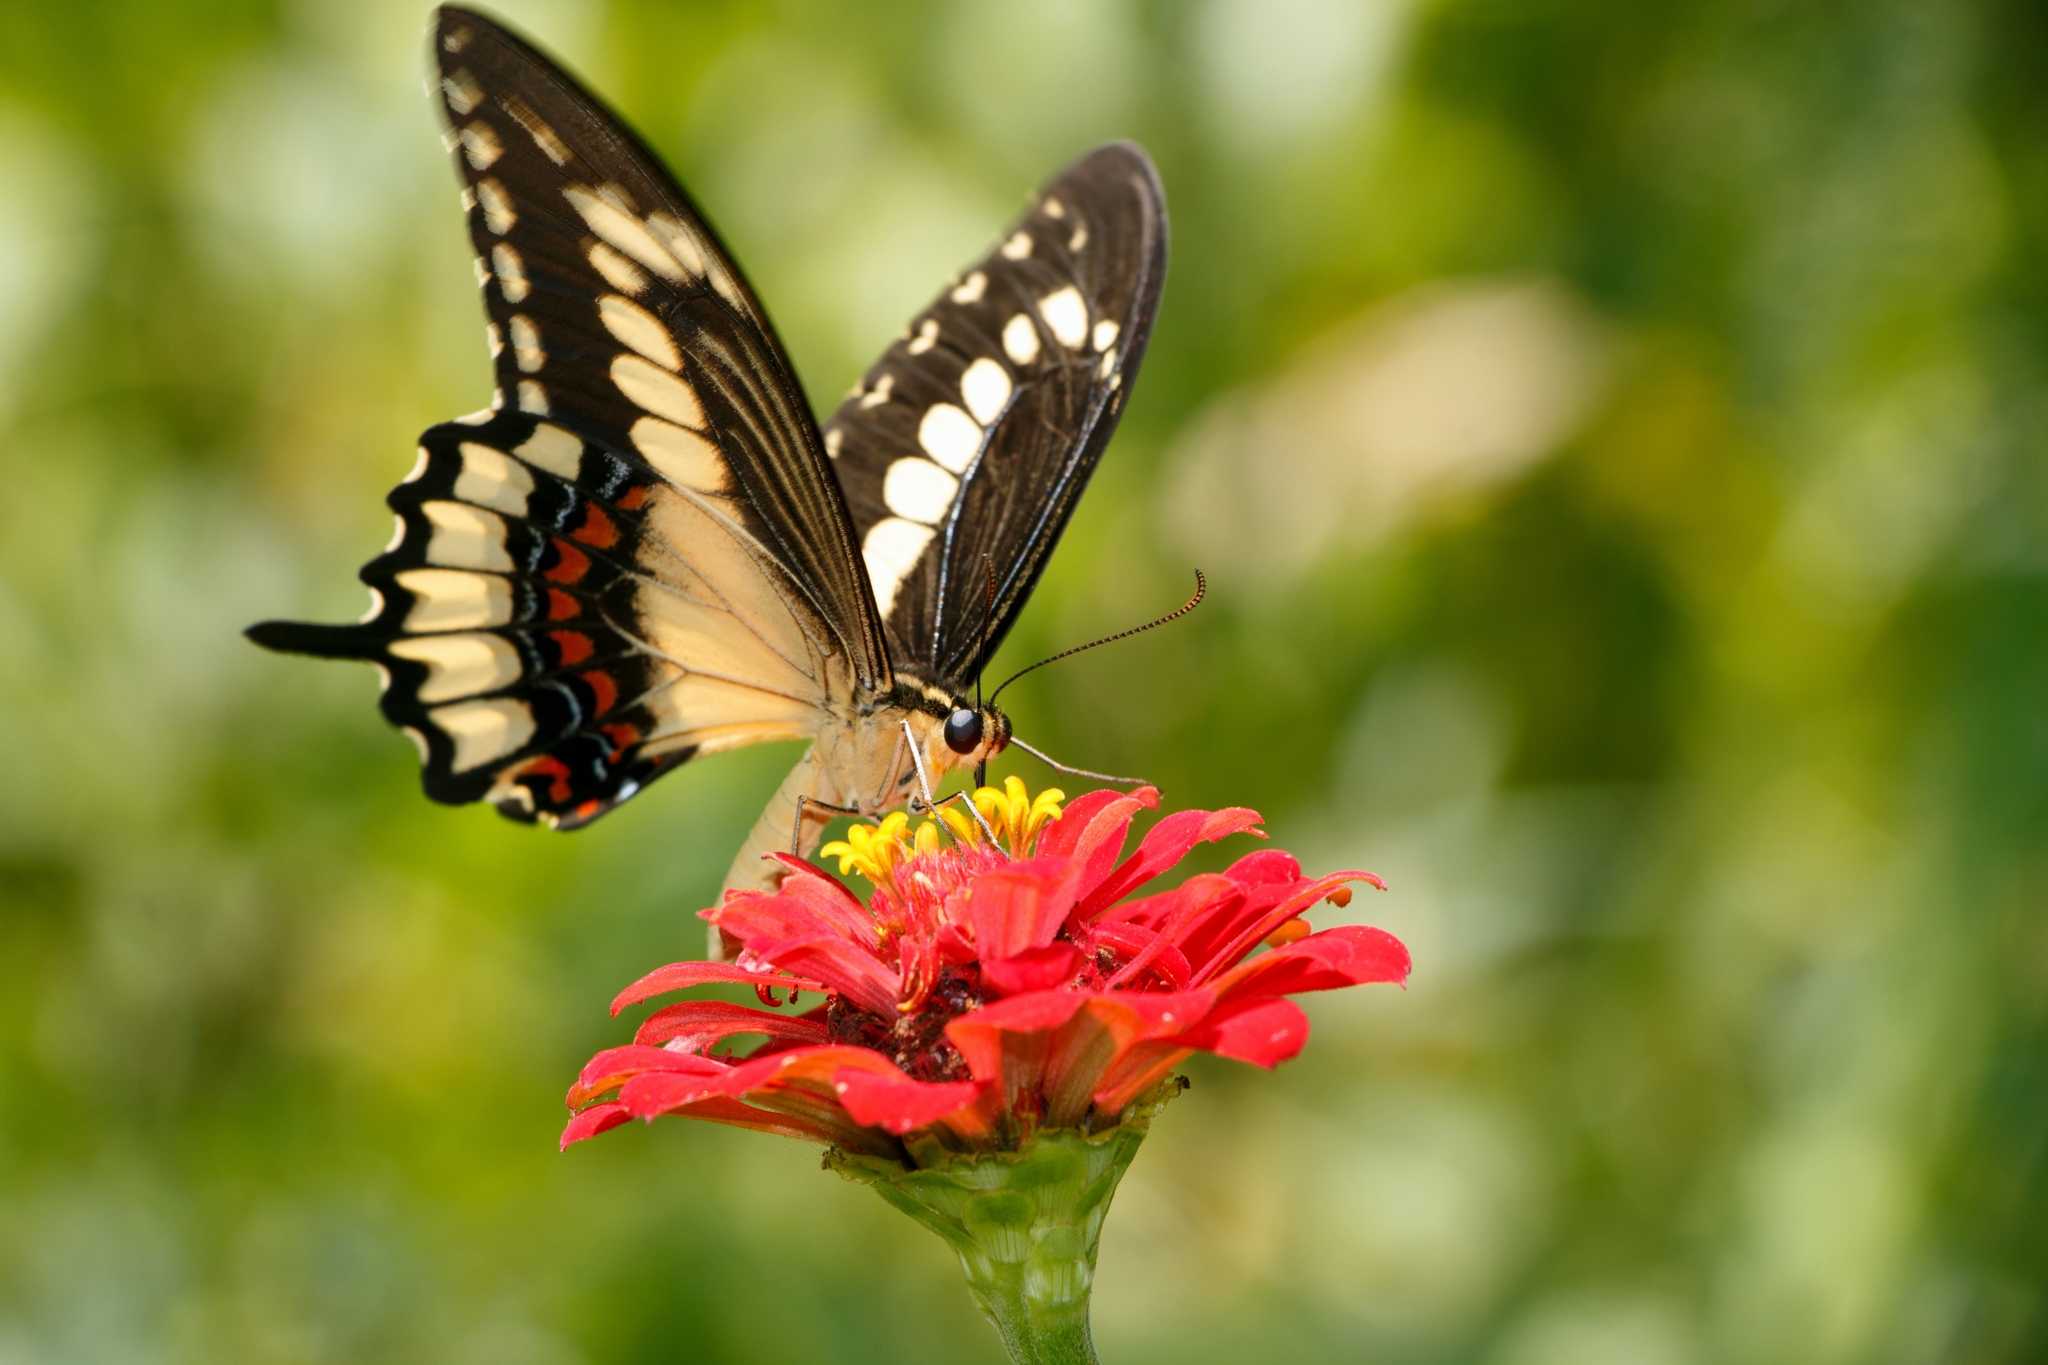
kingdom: Animalia
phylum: Arthropoda
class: Insecta
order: Lepidoptera
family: Papilionidae
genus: Heraclides
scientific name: Heraclides pallas
